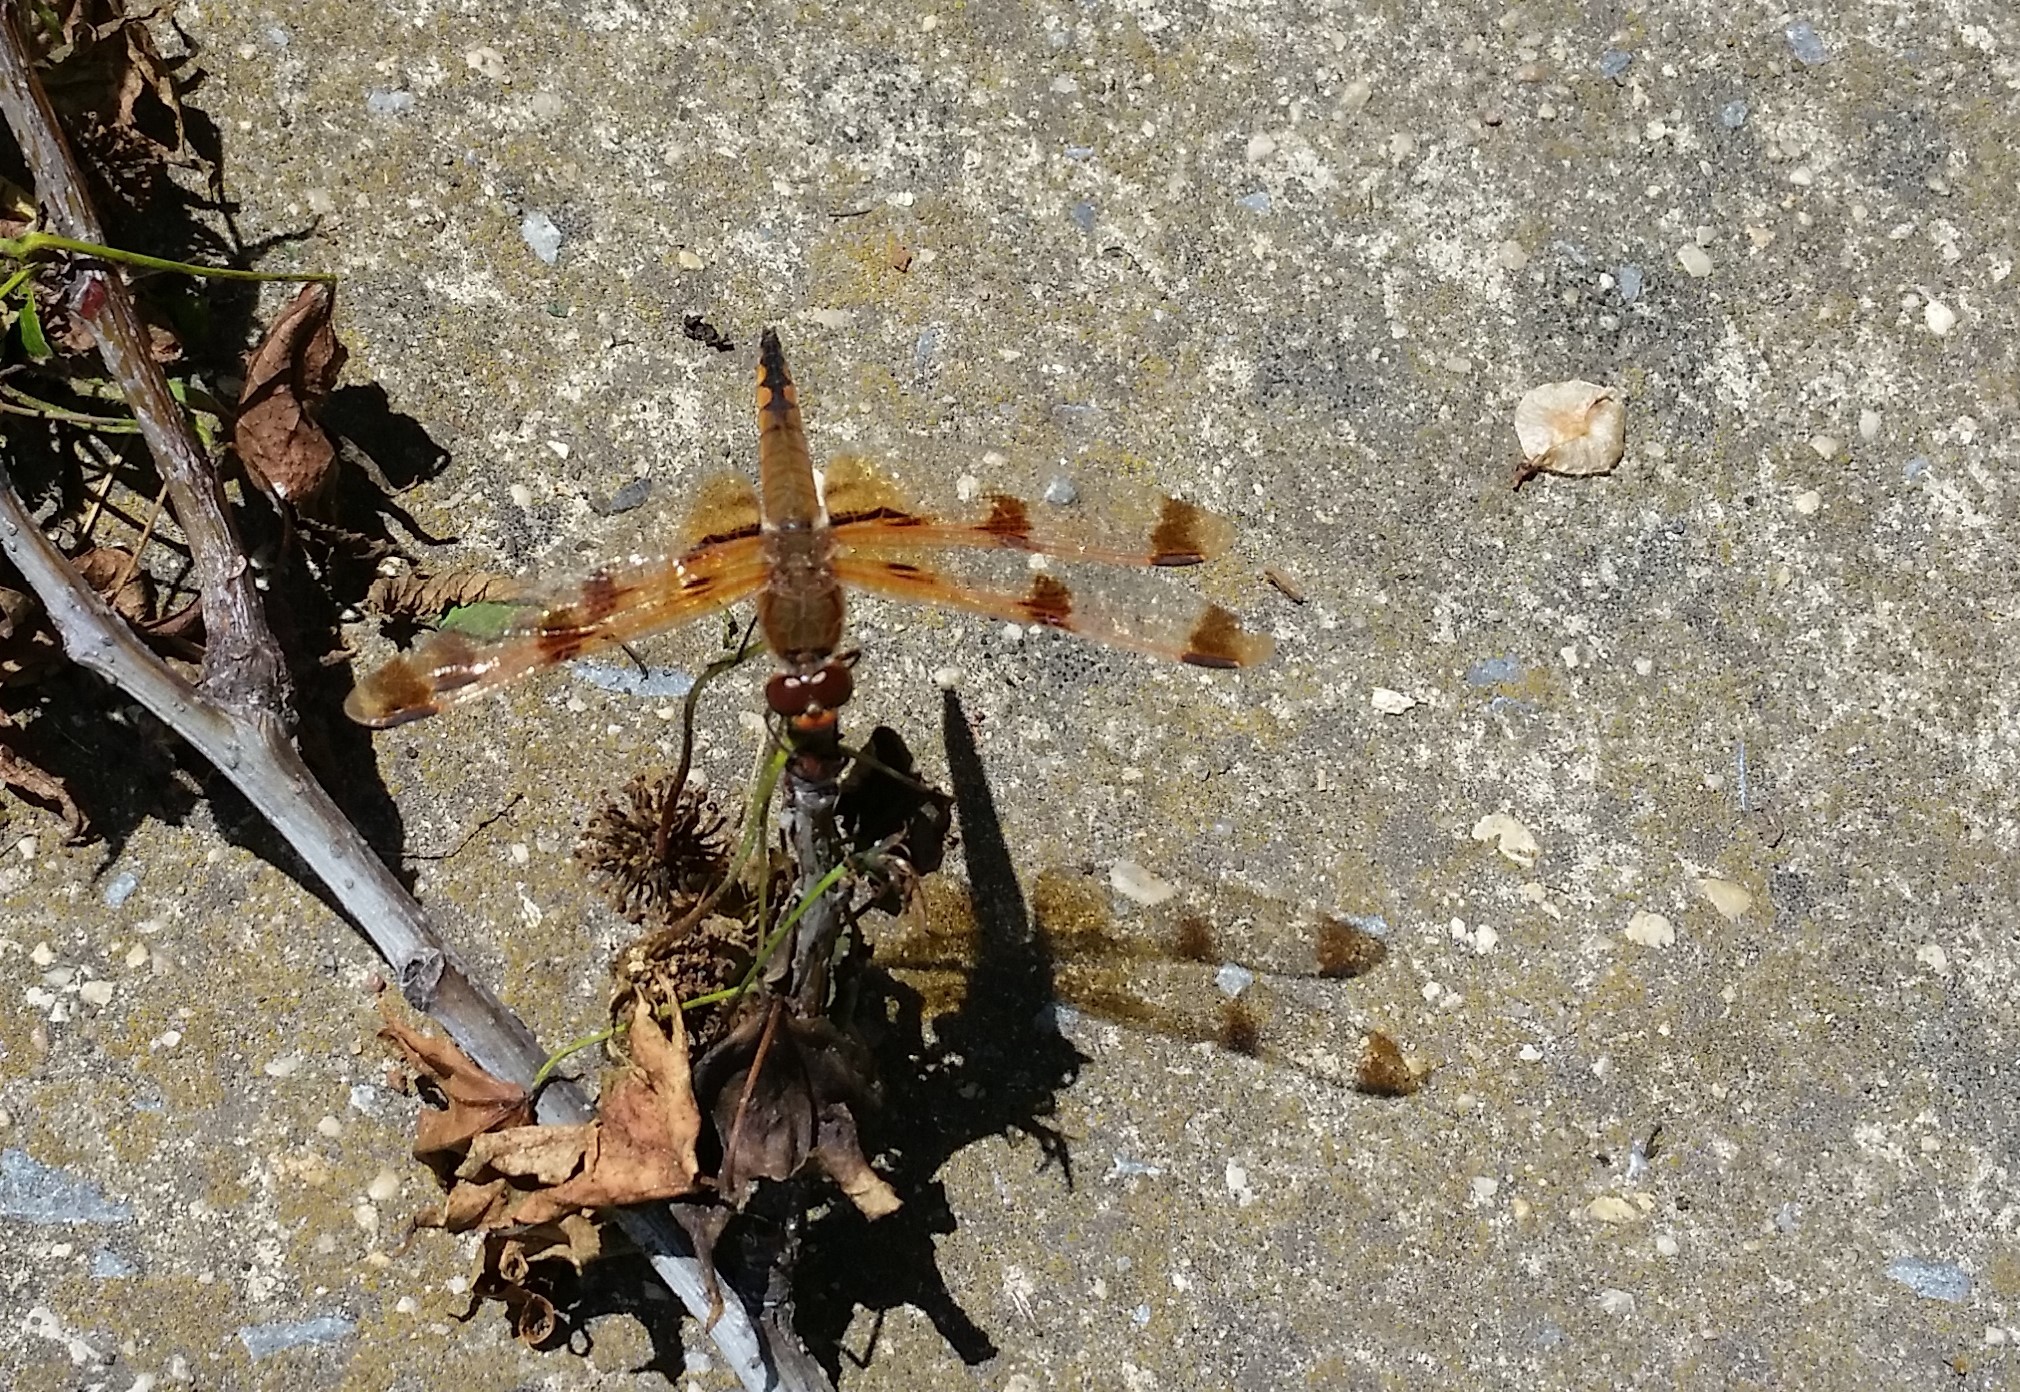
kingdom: Animalia
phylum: Arthropoda
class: Insecta
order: Odonata
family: Libellulidae
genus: Libellula
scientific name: Libellula semifasciata
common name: Painted skimmer
